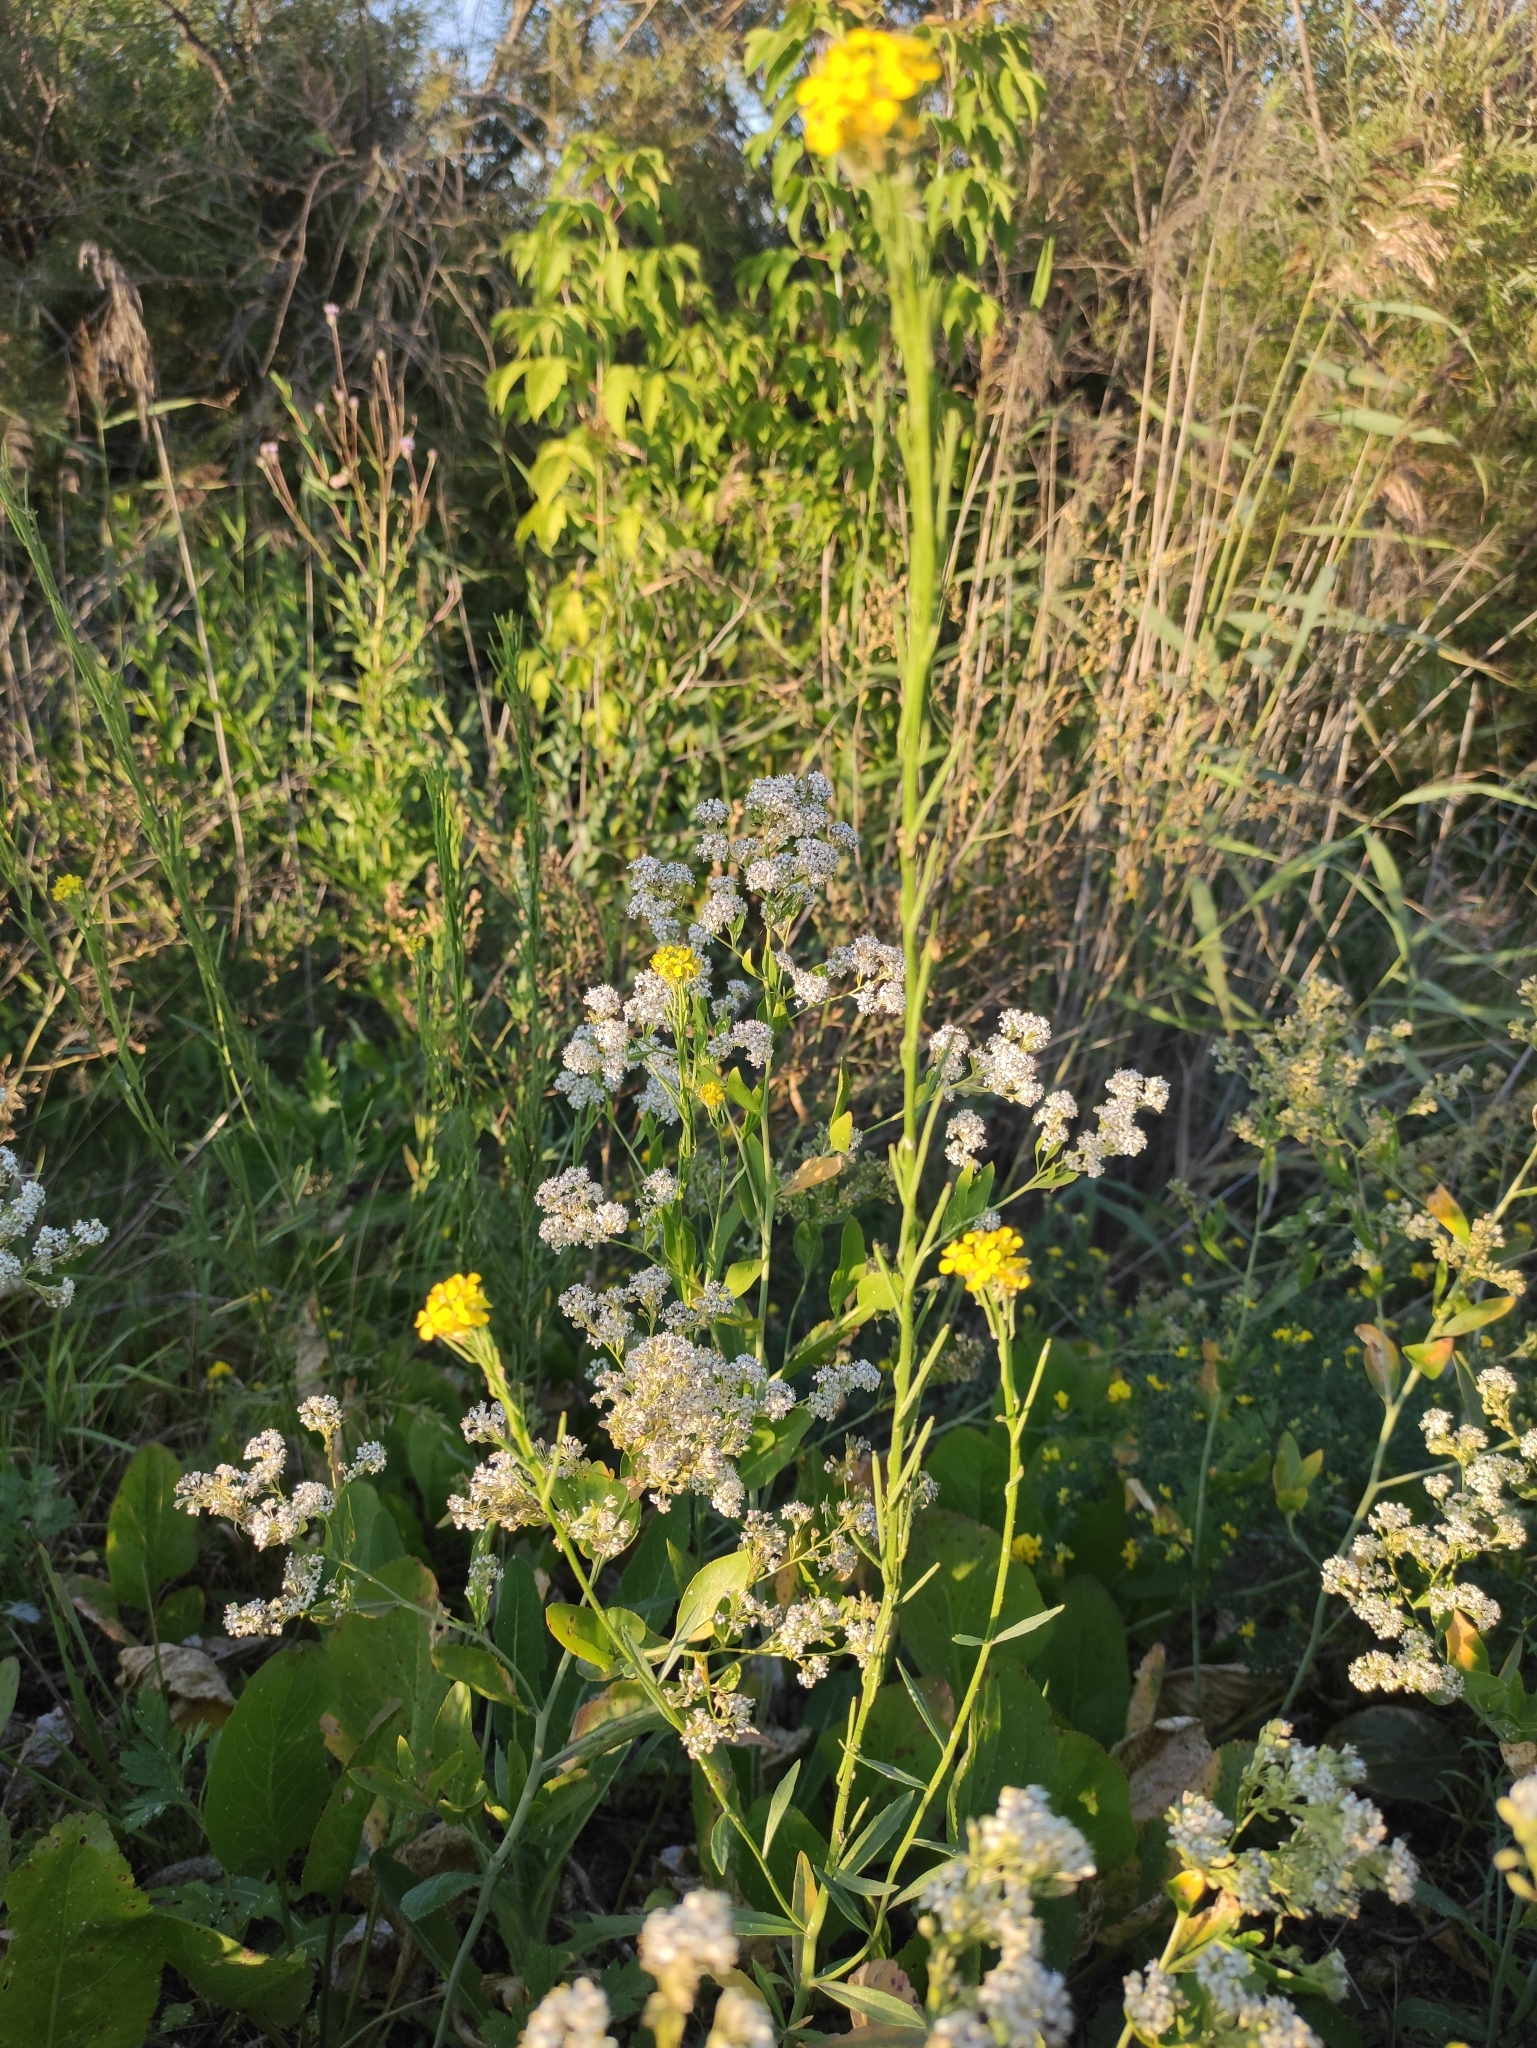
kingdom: Plantae
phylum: Tracheophyta
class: Magnoliopsida
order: Brassicales
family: Brassicaceae
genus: Erysimum
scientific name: Erysimum hieraciifolium
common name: European wallflower
